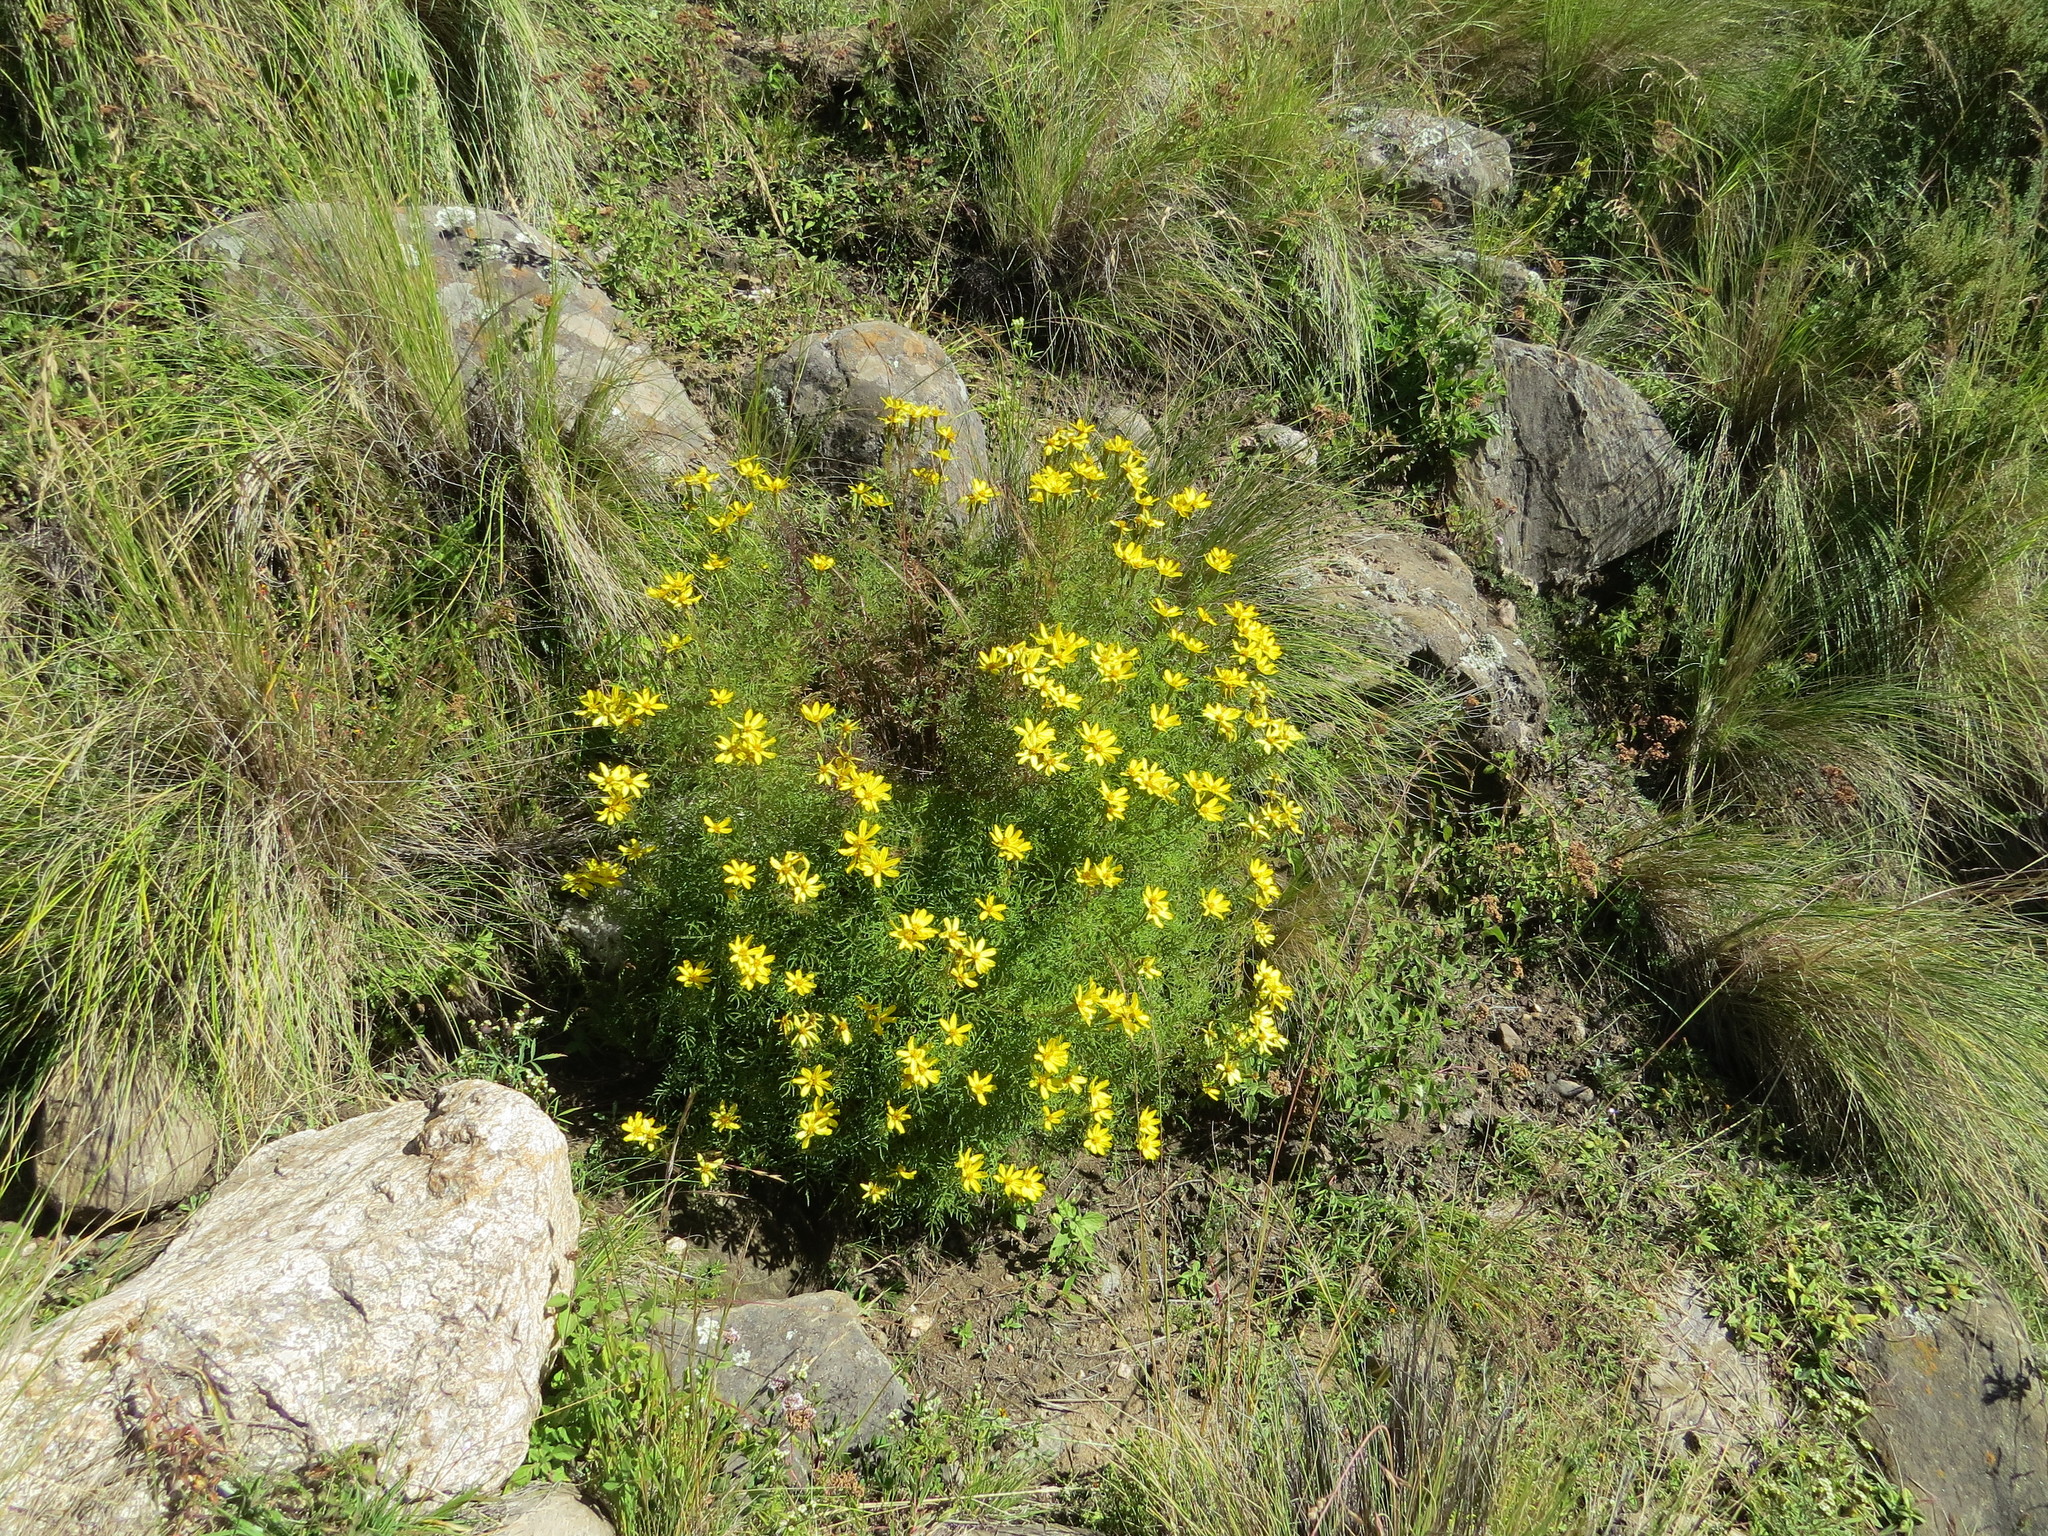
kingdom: Plantae
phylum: Tracheophyta
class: Magnoliopsida
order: Asterales
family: Asteraceae
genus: Tagetes
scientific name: Tagetes campanulata
